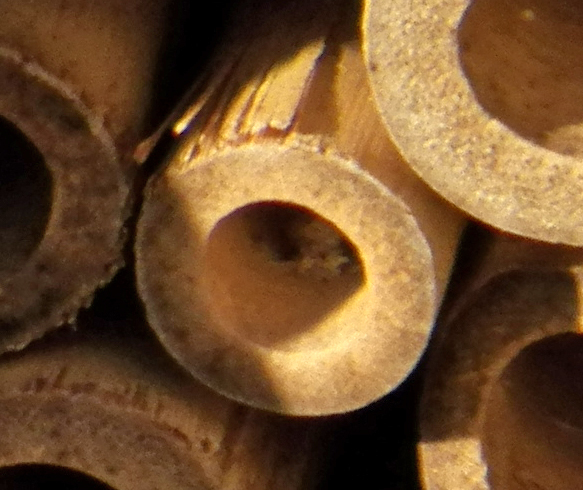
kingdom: Animalia
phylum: Arthropoda
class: Insecta
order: Hymenoptera
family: Eumenidae
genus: Pachodynerus
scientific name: Pachodynerus erynnis
